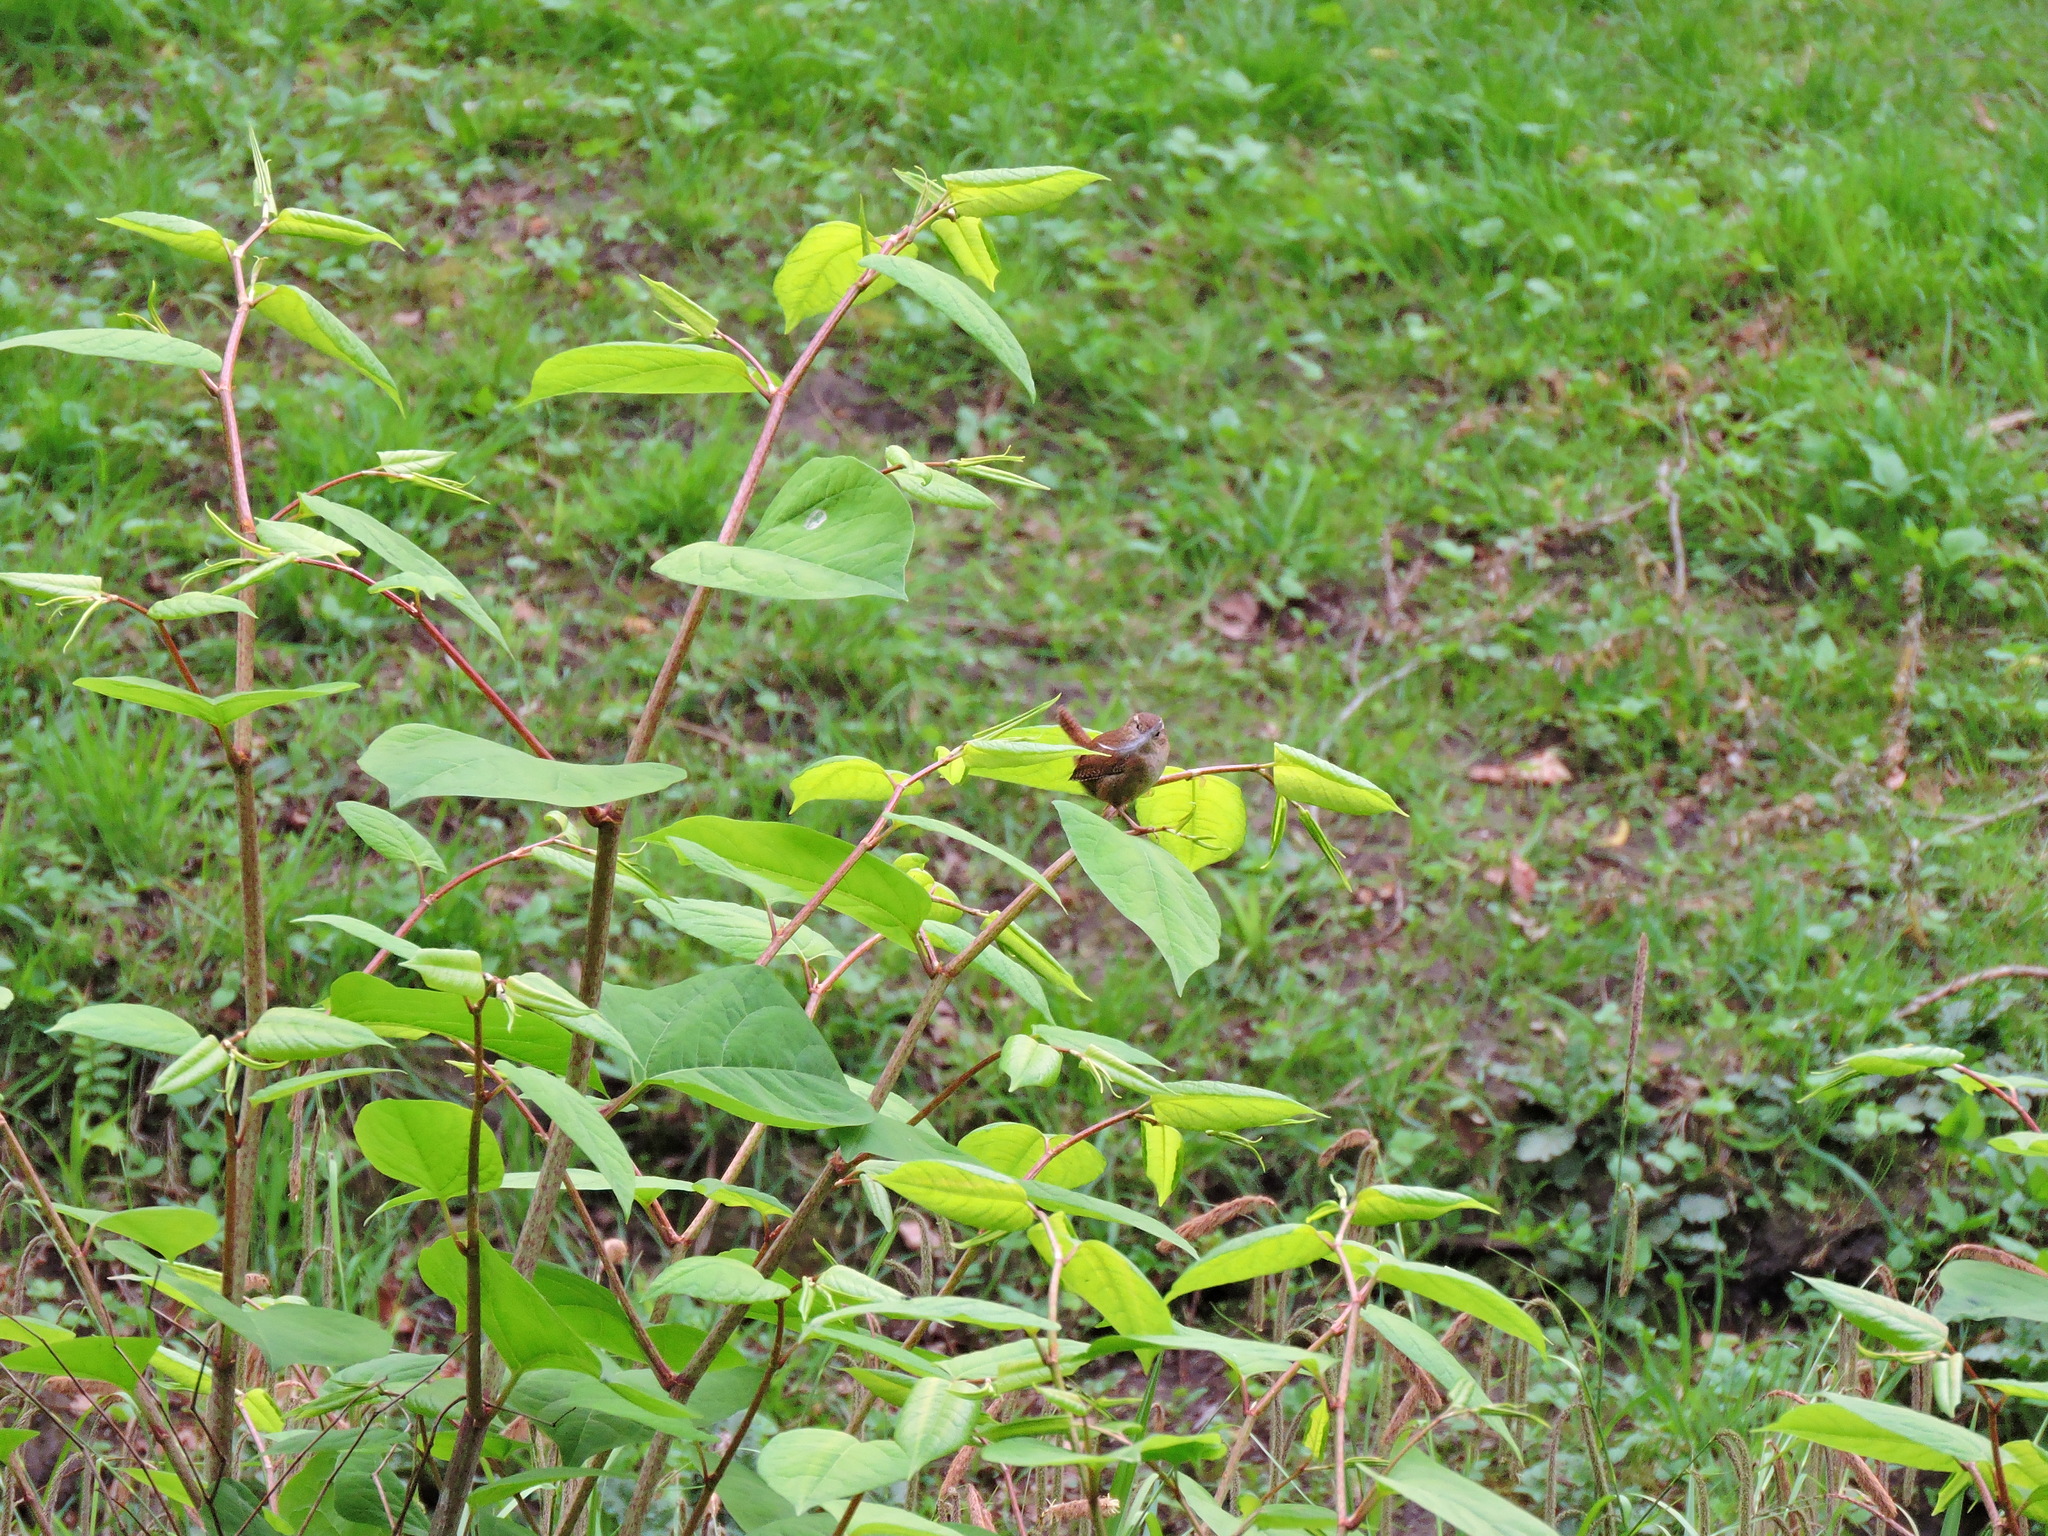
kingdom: Animalia
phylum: Chordata
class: Aves
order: Passeriformes
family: Troglodytidae
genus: Troglodytes
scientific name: Troglodytes troglodytes
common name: Eurasian wren
